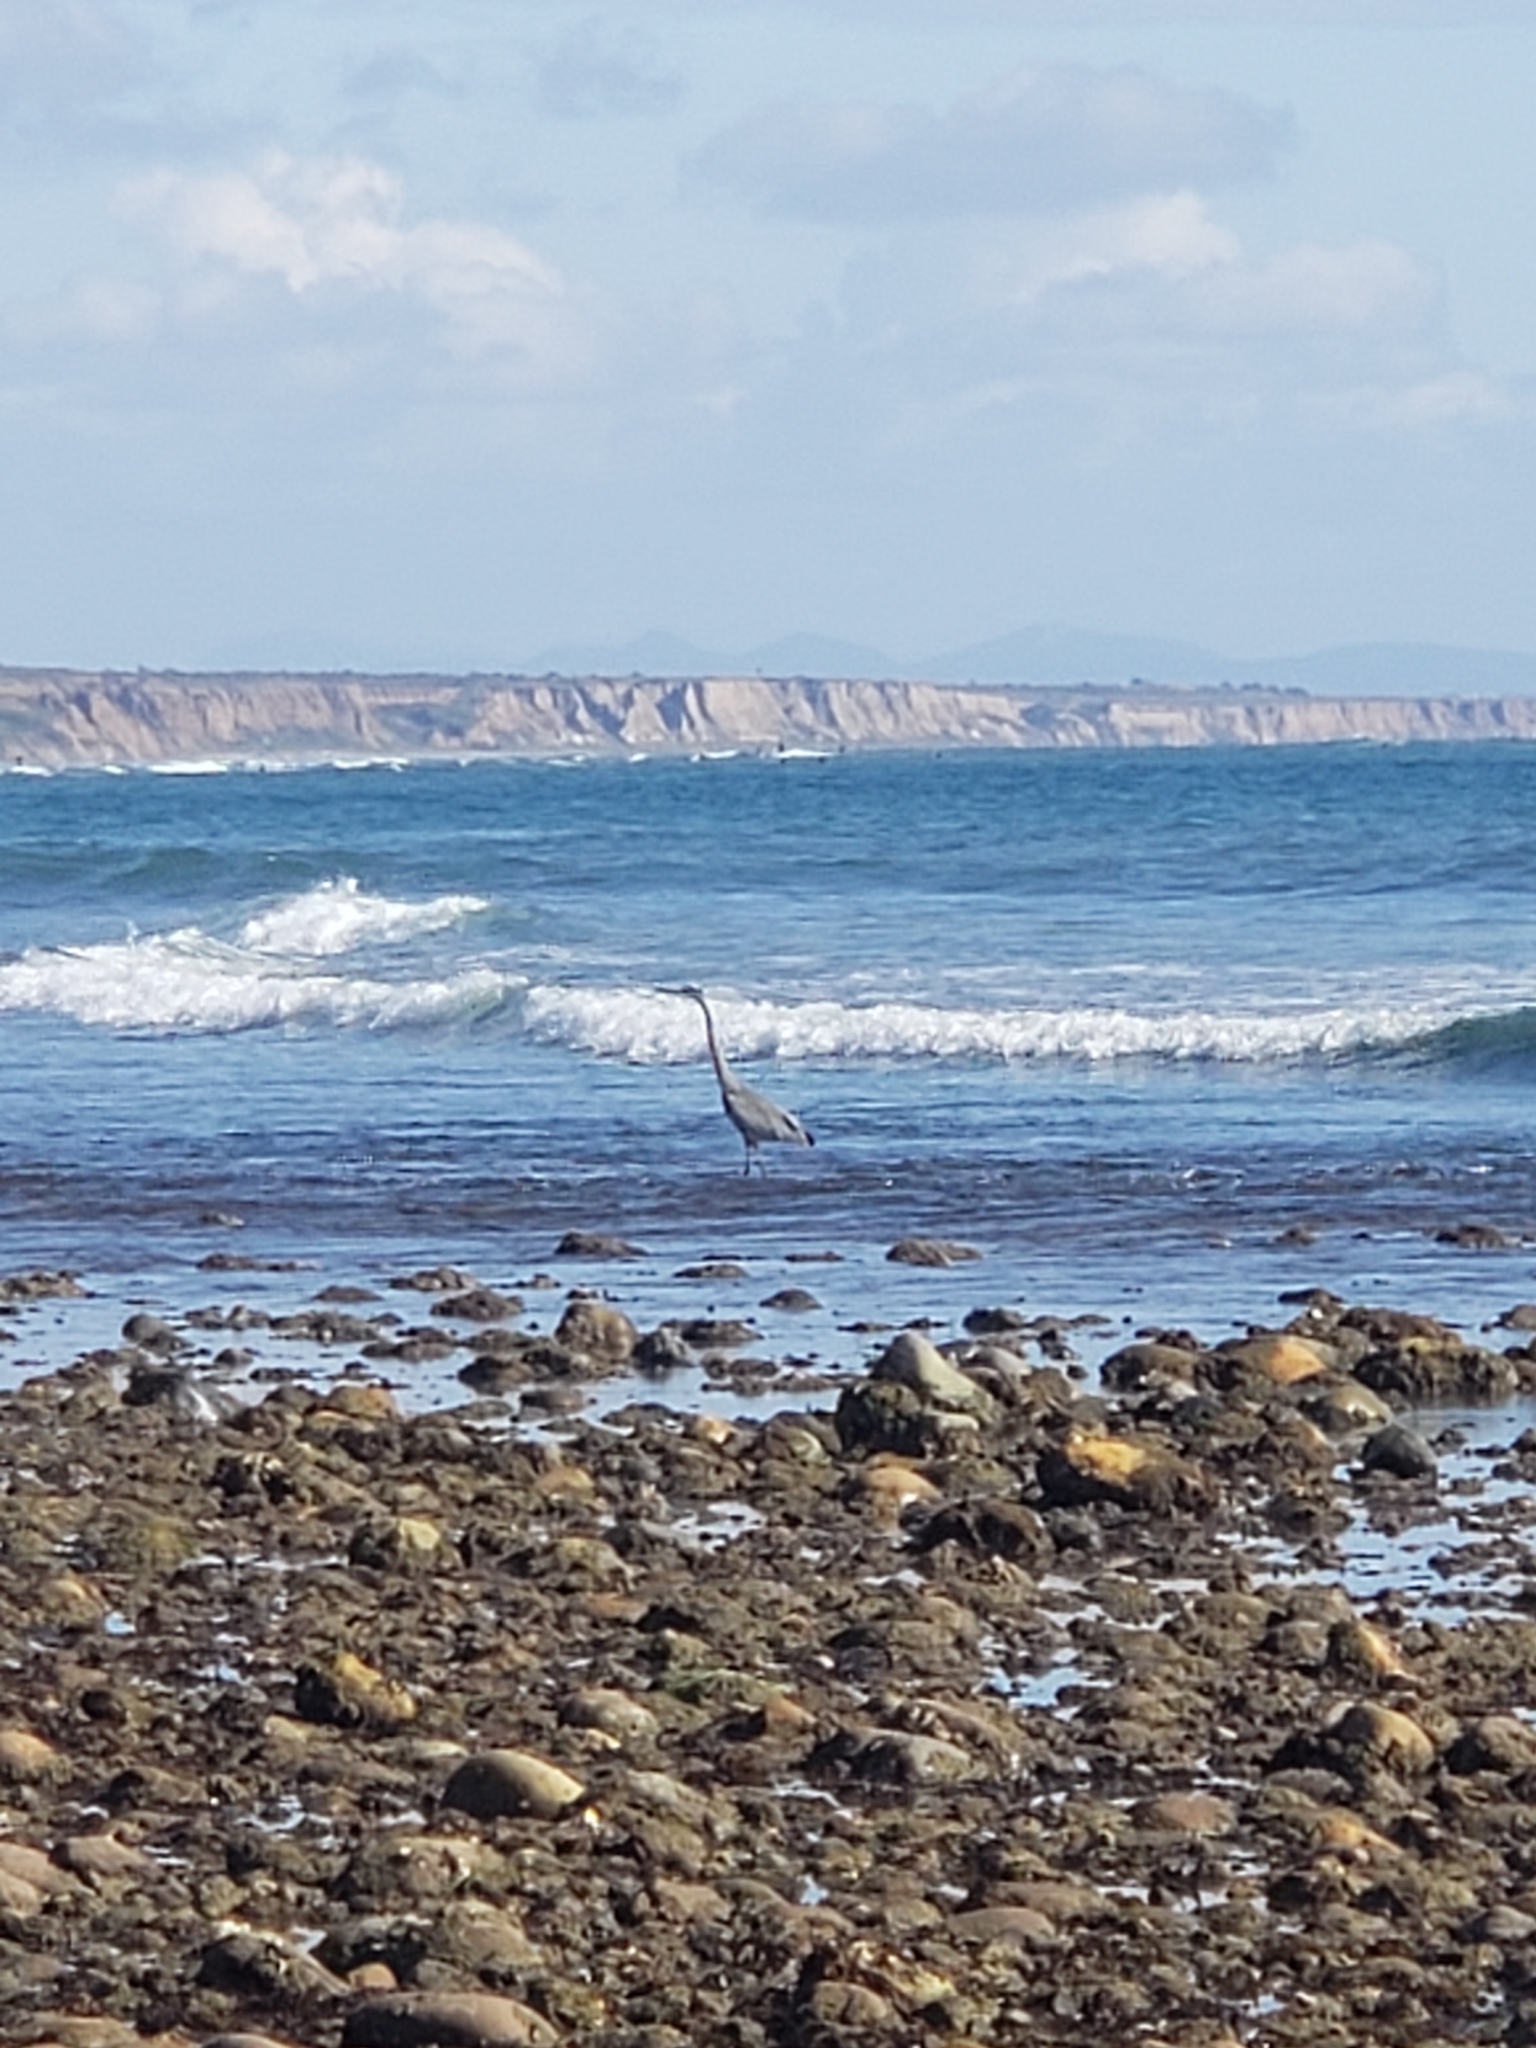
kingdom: Animalia
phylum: Chordata
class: Aves
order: Pelecaniformes
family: Ardeidae
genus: Ardea
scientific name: Ardea herodias
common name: Great blue heron
